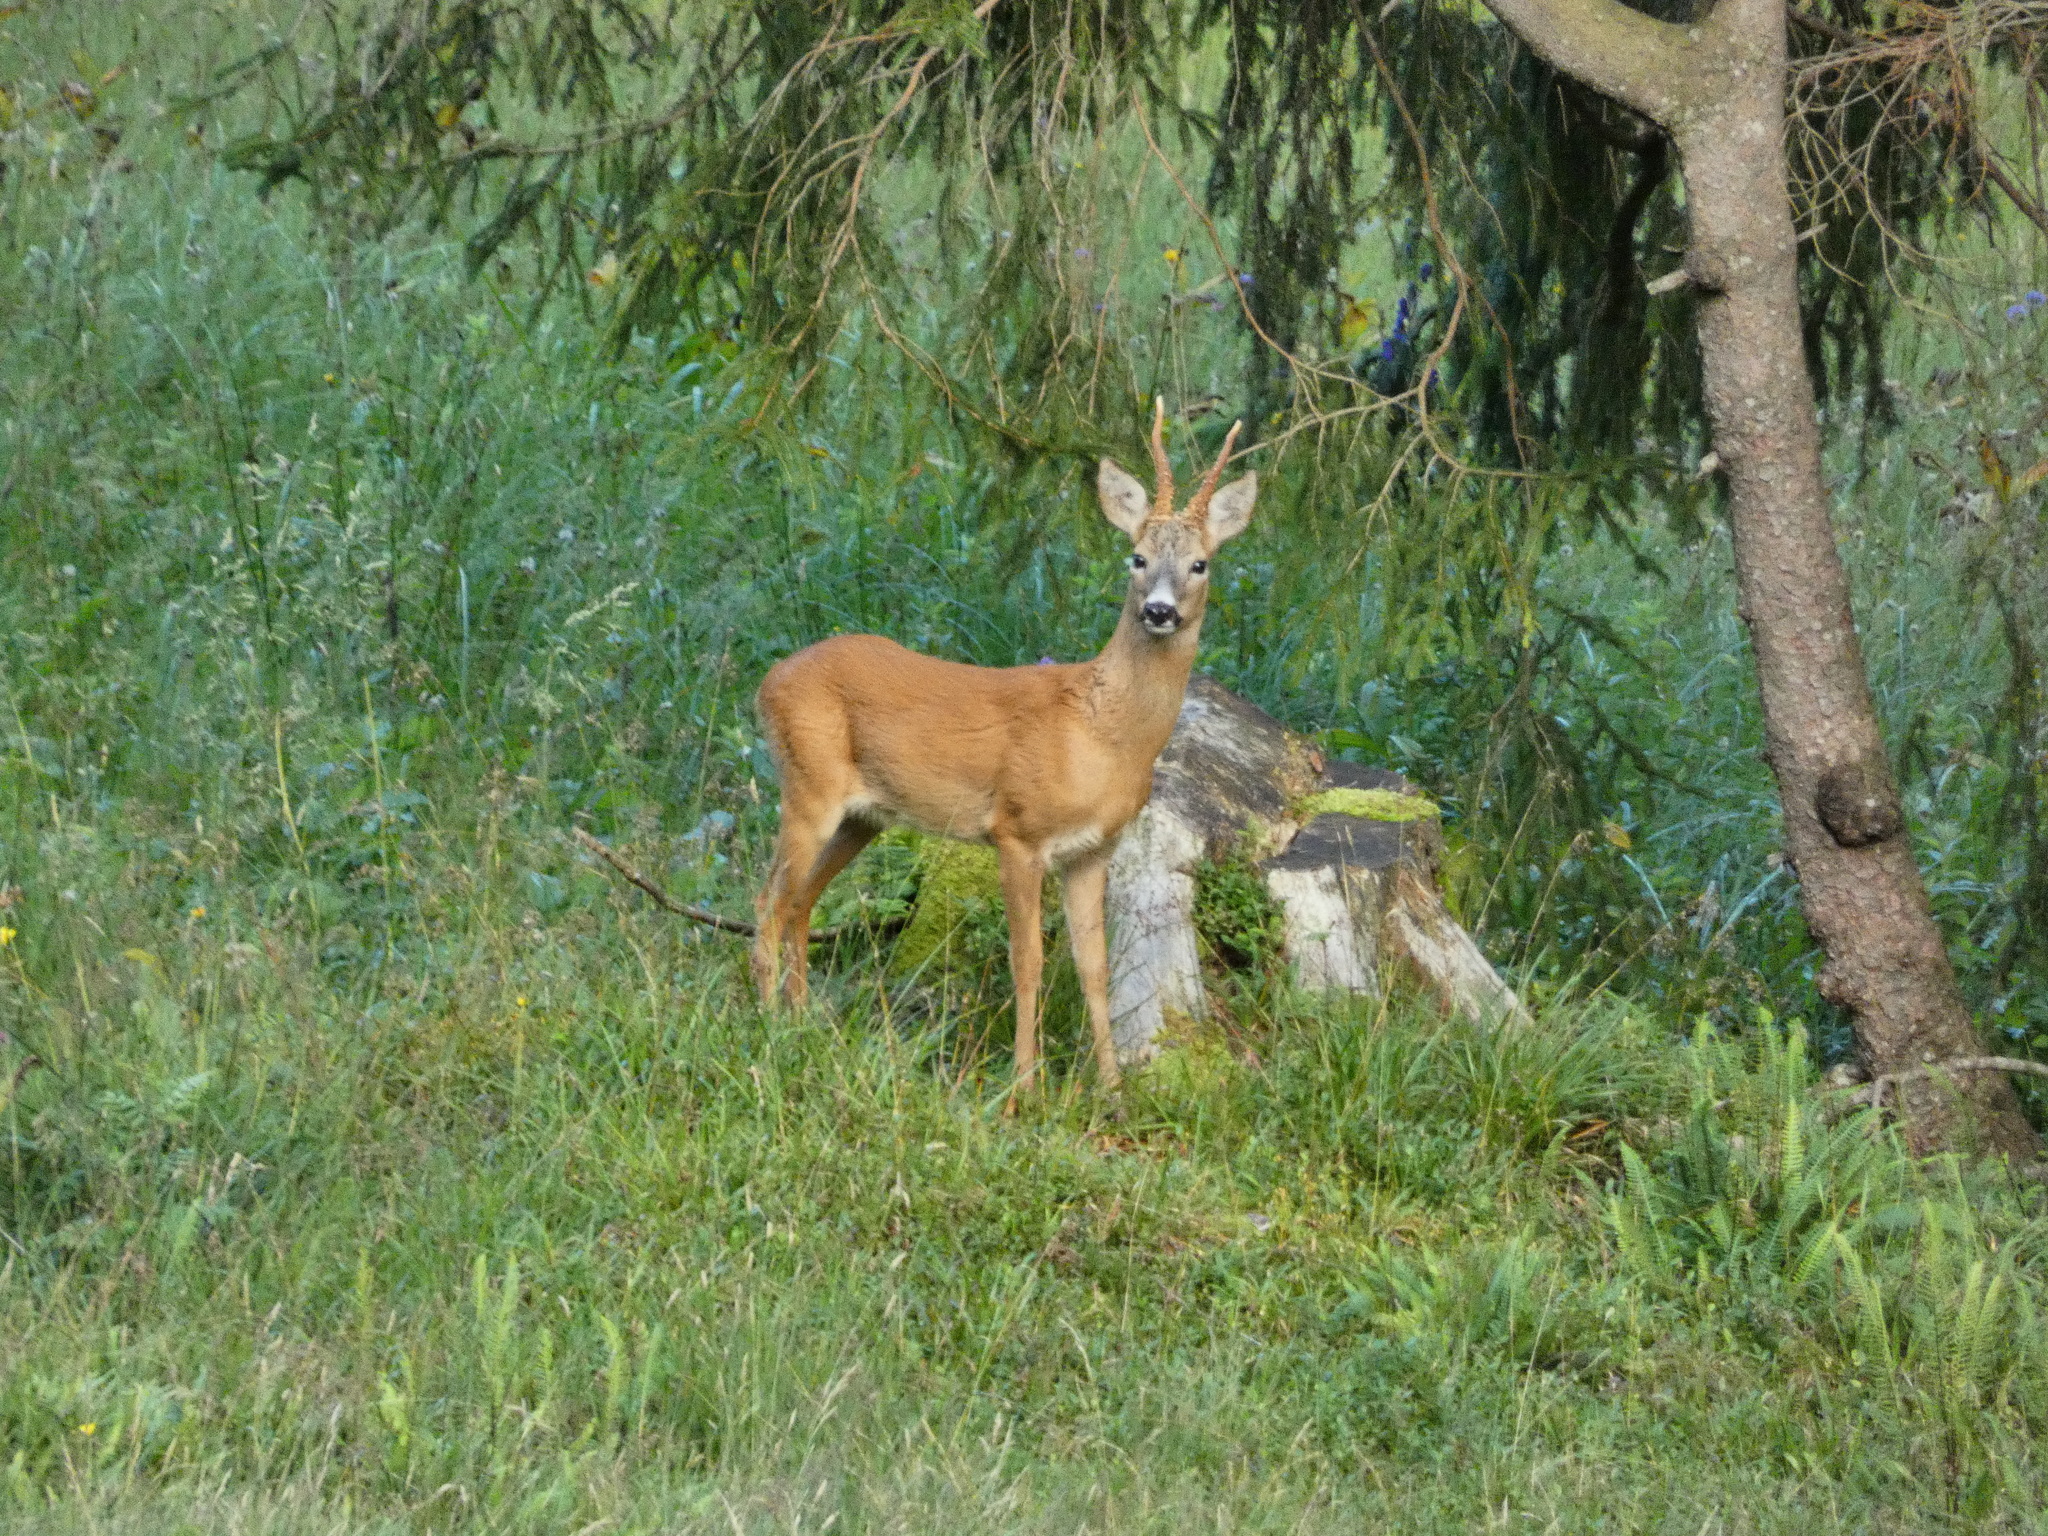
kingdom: Animalia
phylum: Chordata
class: Mammalia
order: Artiodactyla
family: Cervidae
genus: Capreolus
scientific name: Capreolus capreolus
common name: Western roe deer
